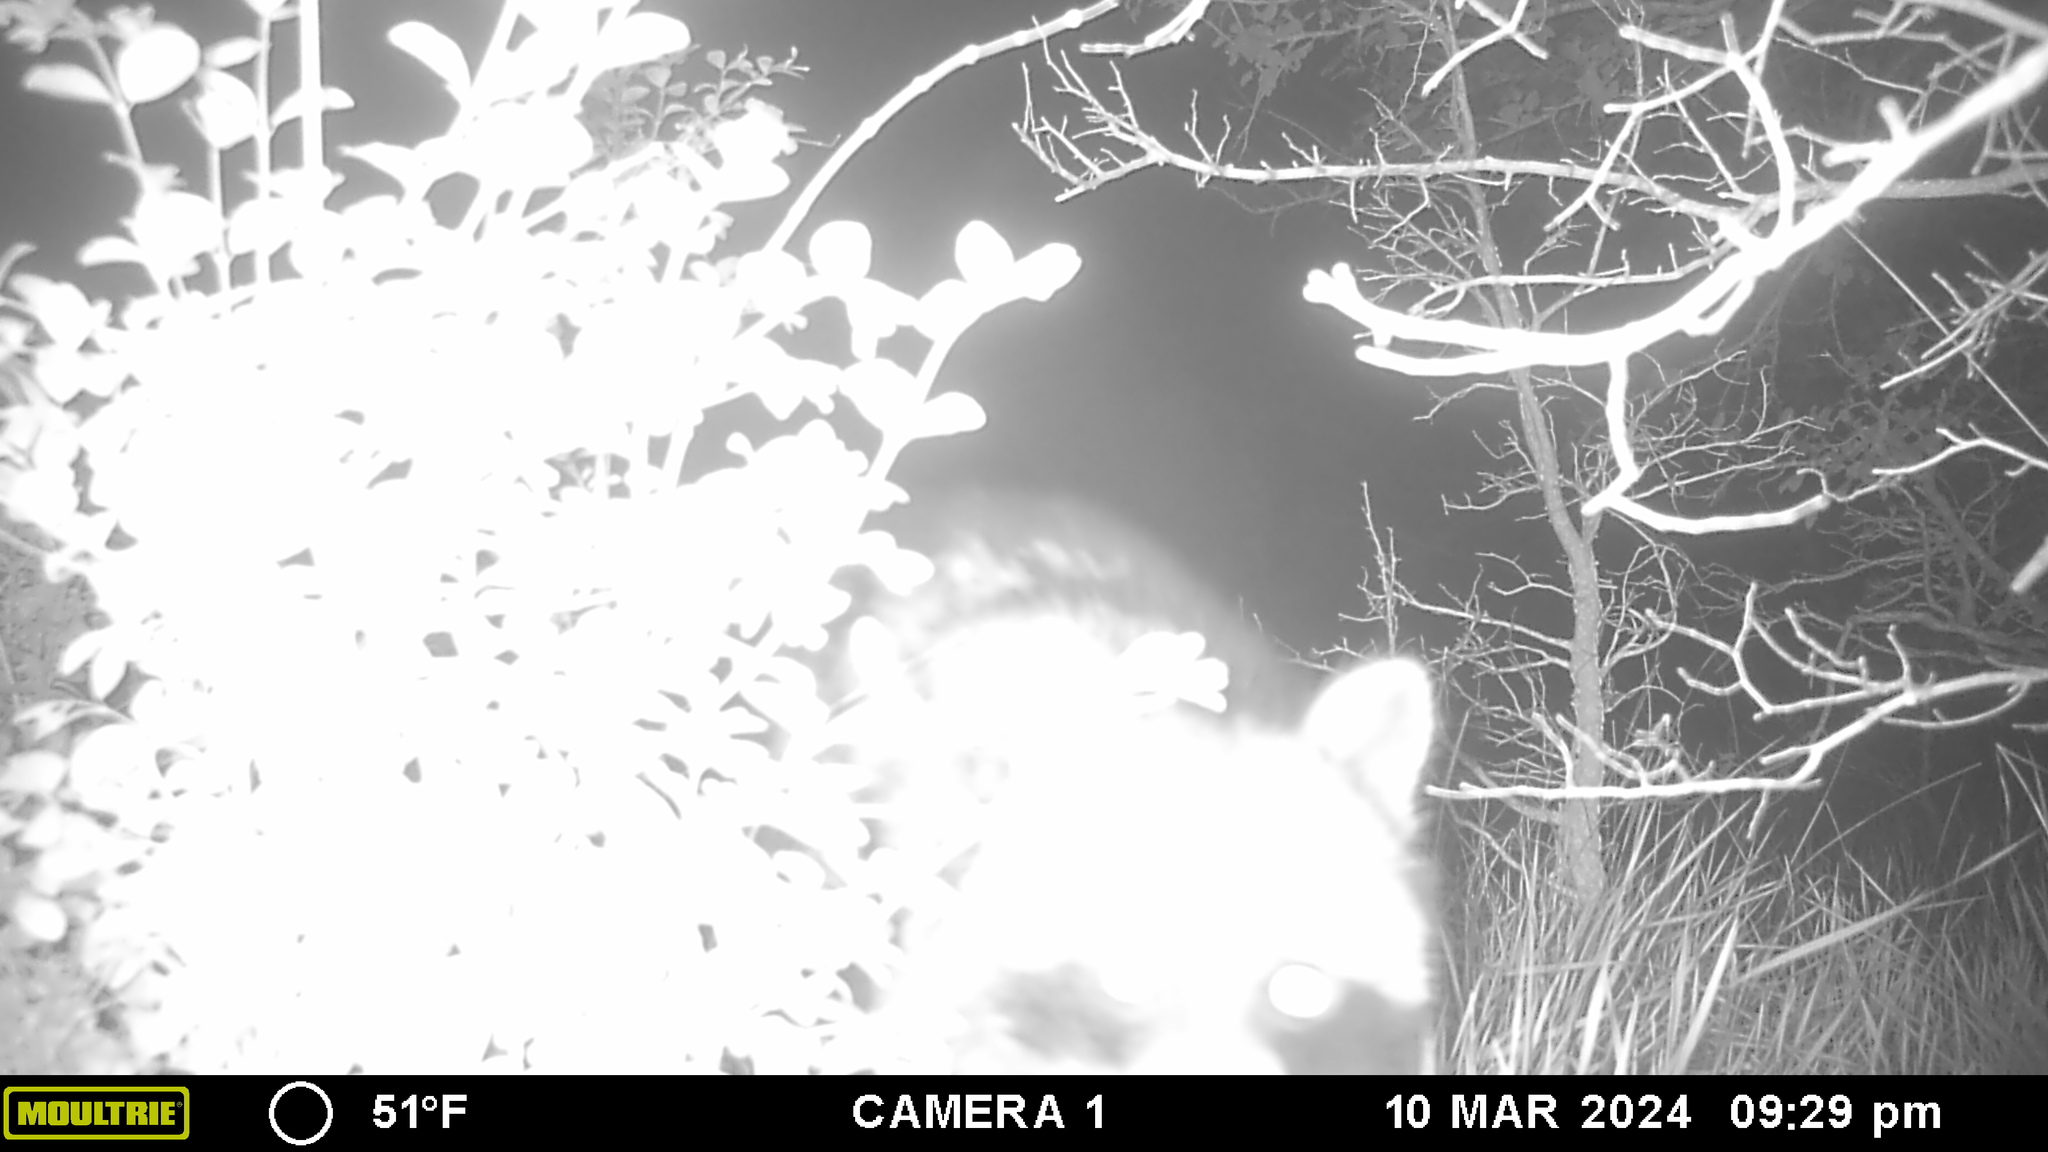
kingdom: Animalia
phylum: Chordata
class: Mammalia
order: Carnivora
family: Procyonidae
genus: Procyon
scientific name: Procyon lotor
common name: Raccoon
